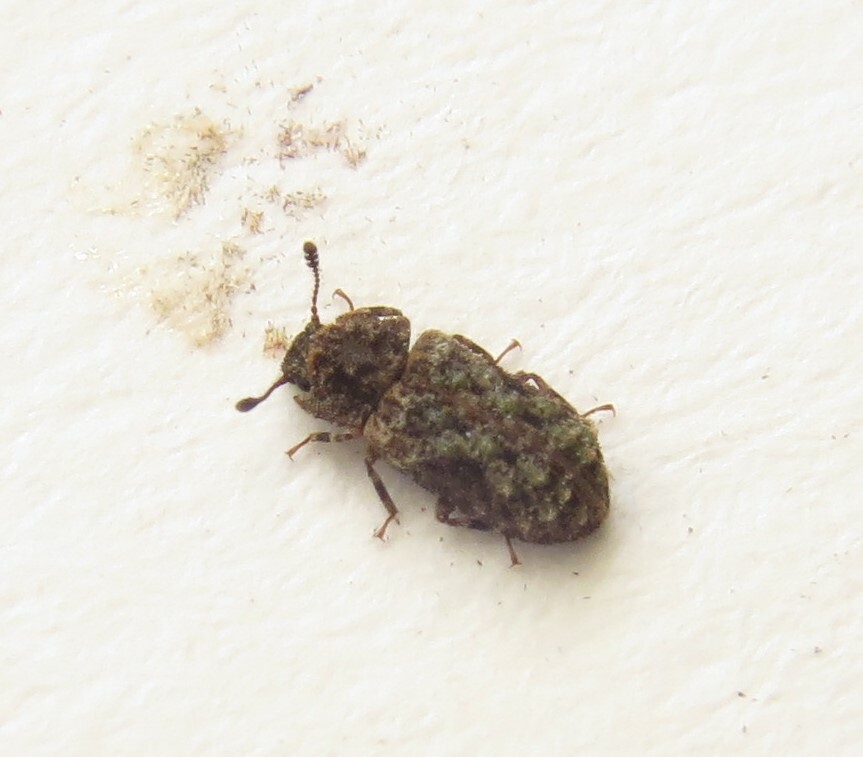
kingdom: Animalia
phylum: Arthropoda
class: Insecta
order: Coleoptera
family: Zopheridae
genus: Pristoderus
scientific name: Pristoderus
